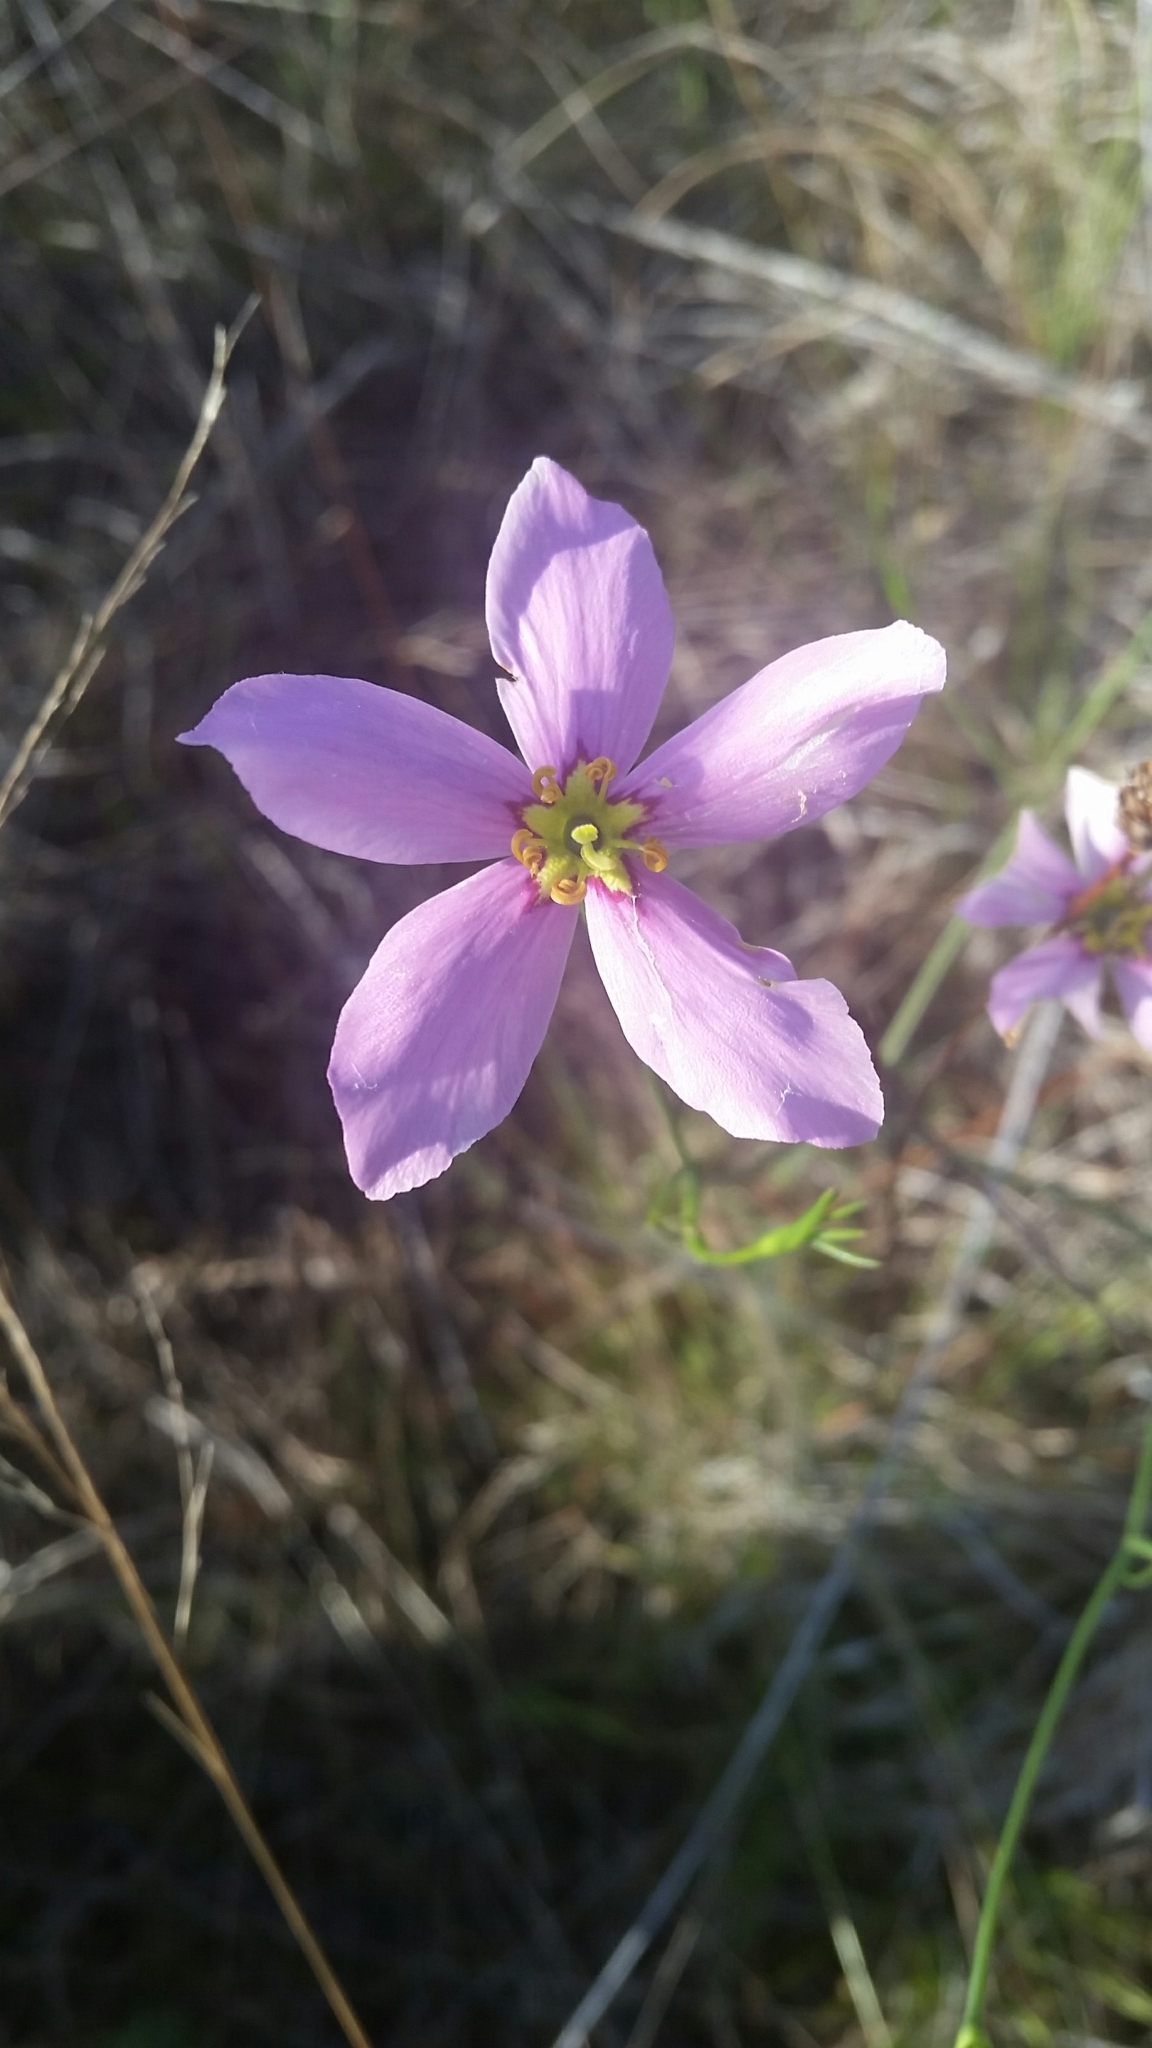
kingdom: Plantae
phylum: Tracheophyta
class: Magnoliopsida
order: Gentianales
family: Gentianaceae
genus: Sabatia
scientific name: Sabatia grandiflora
